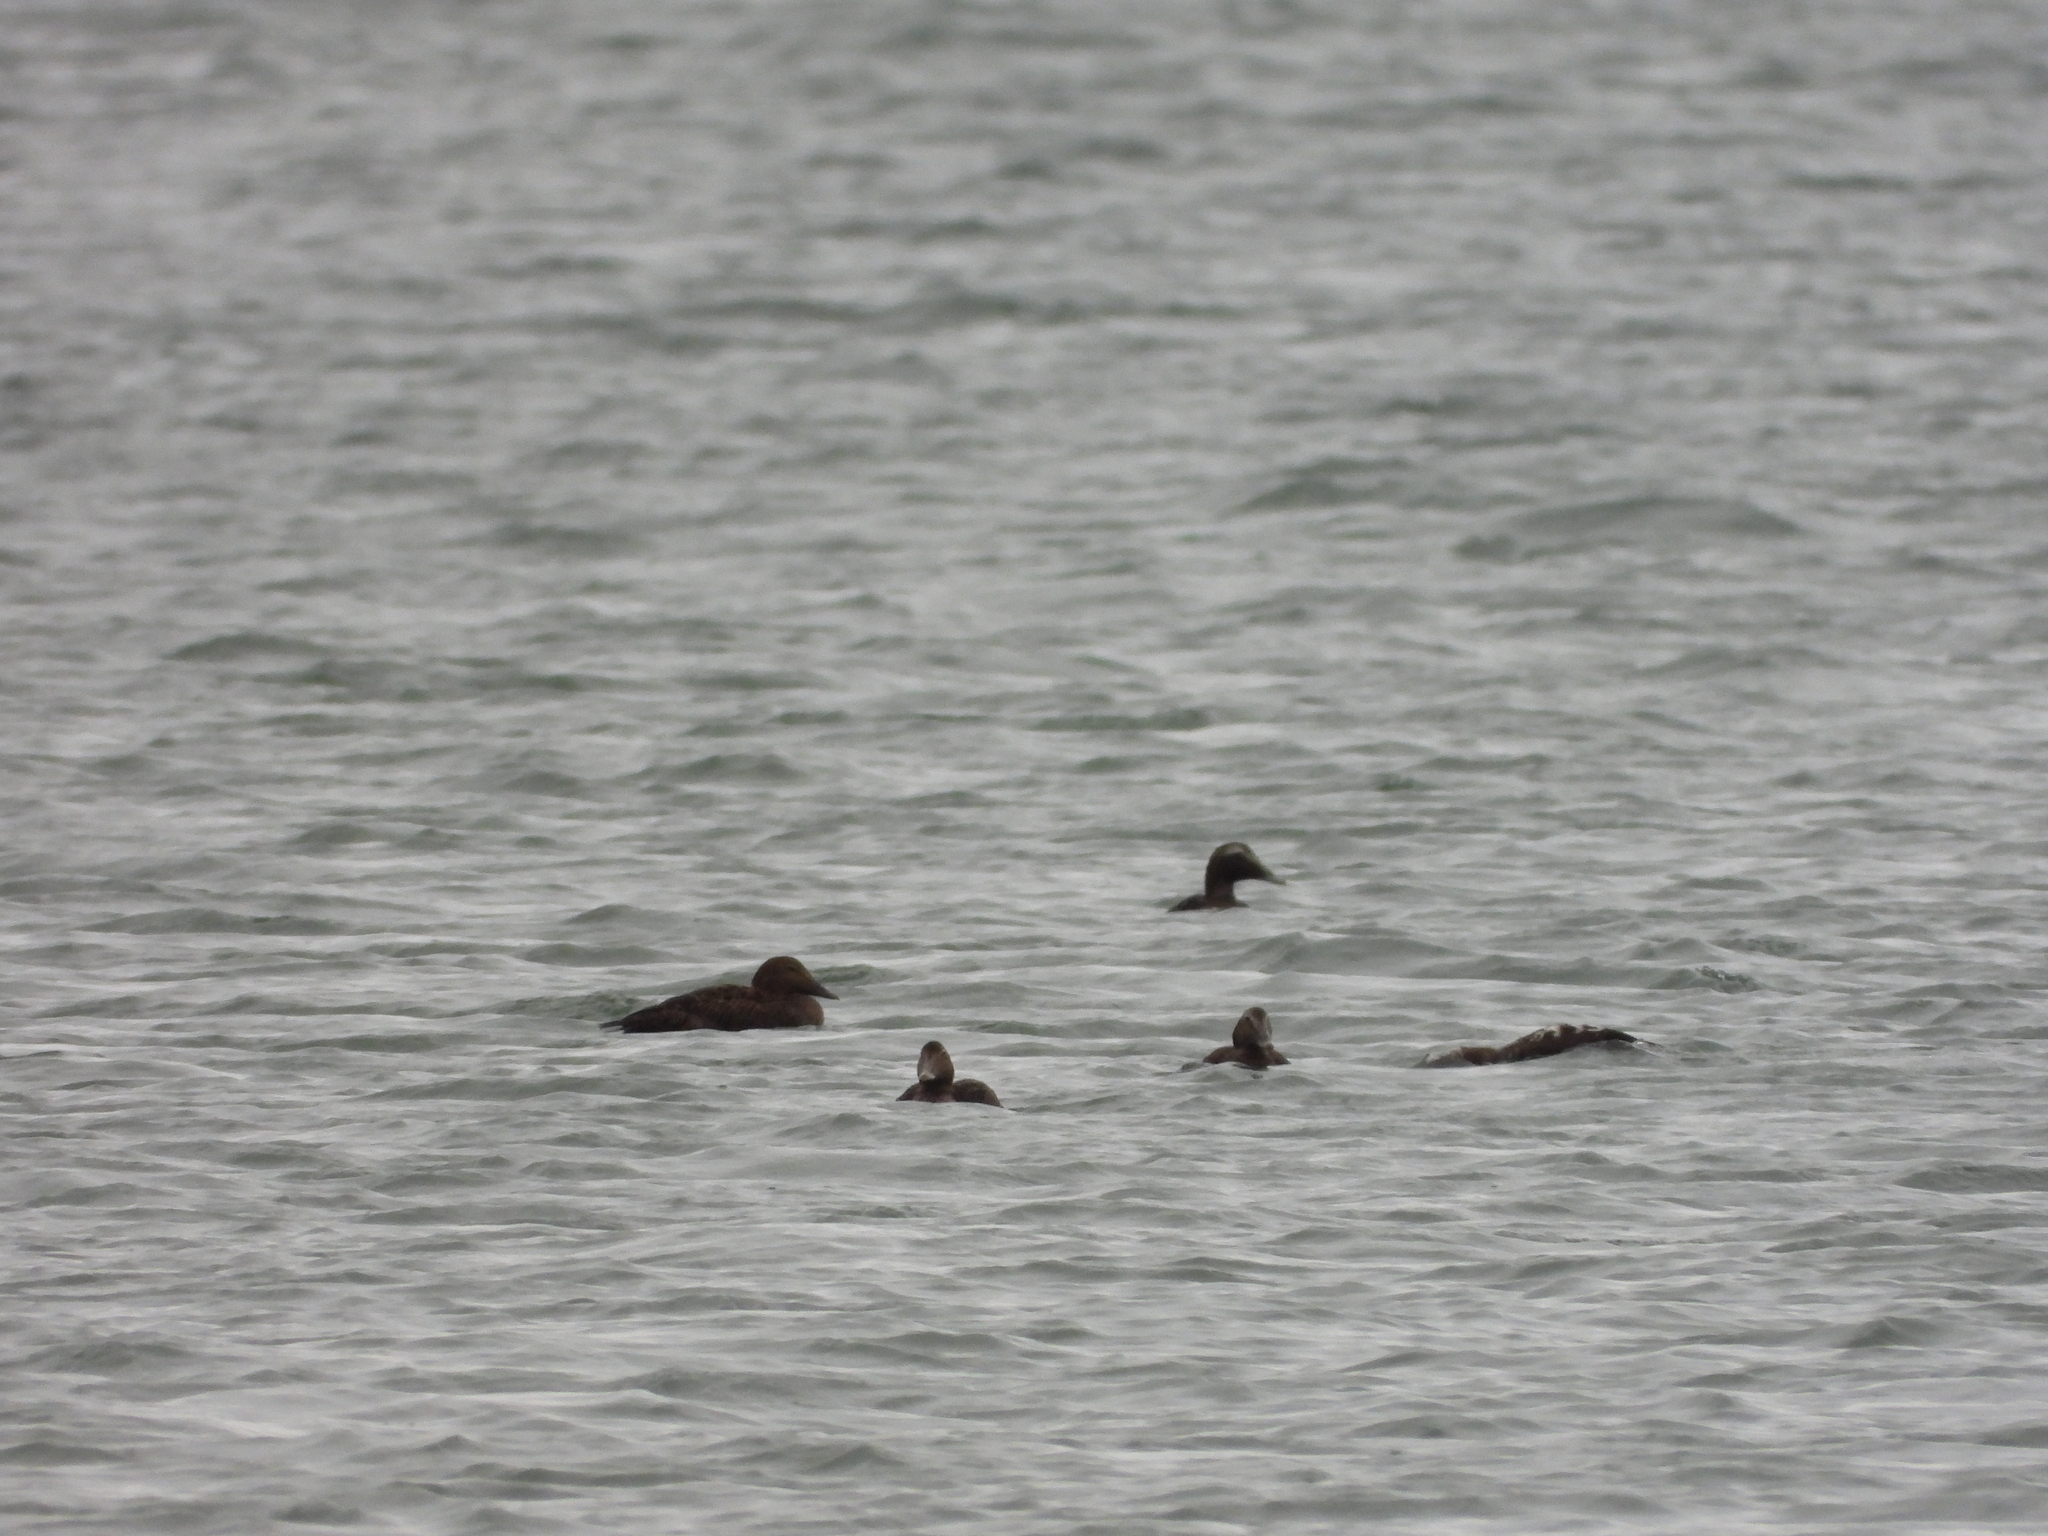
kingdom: Animalia
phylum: Chordata
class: Aves
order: Anseriformes
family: Anatidae
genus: Somateria
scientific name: Somateria mollissima
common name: Common eider
